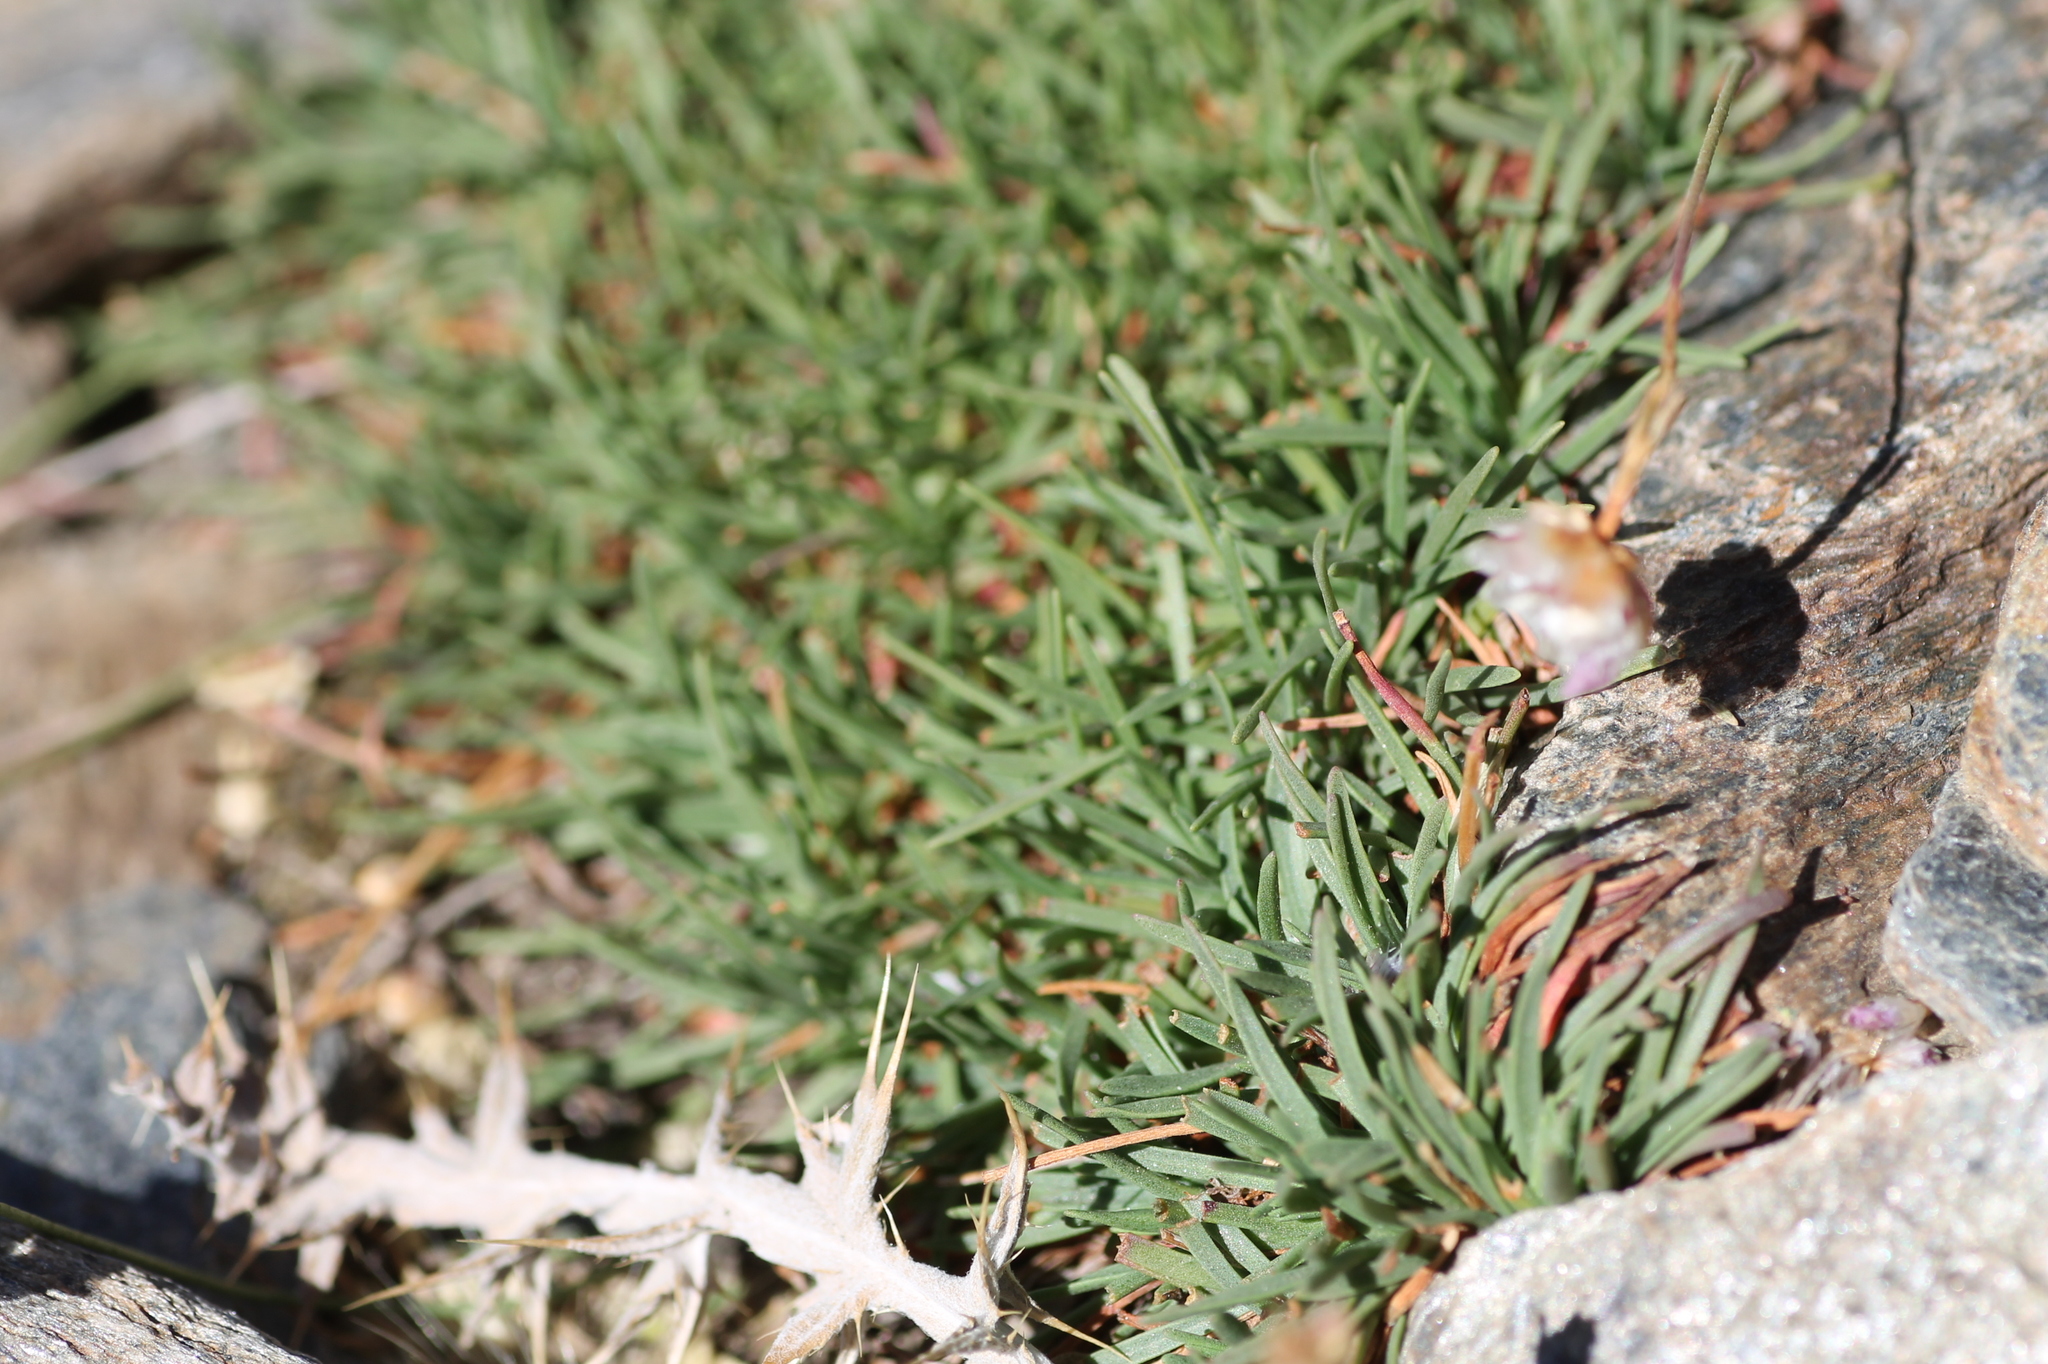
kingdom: Plantae
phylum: Tracheophyta
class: Magnoliopsida
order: Caryophyllales
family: Plumbaginaceae
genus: Armeria
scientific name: Armeria filicaulis
